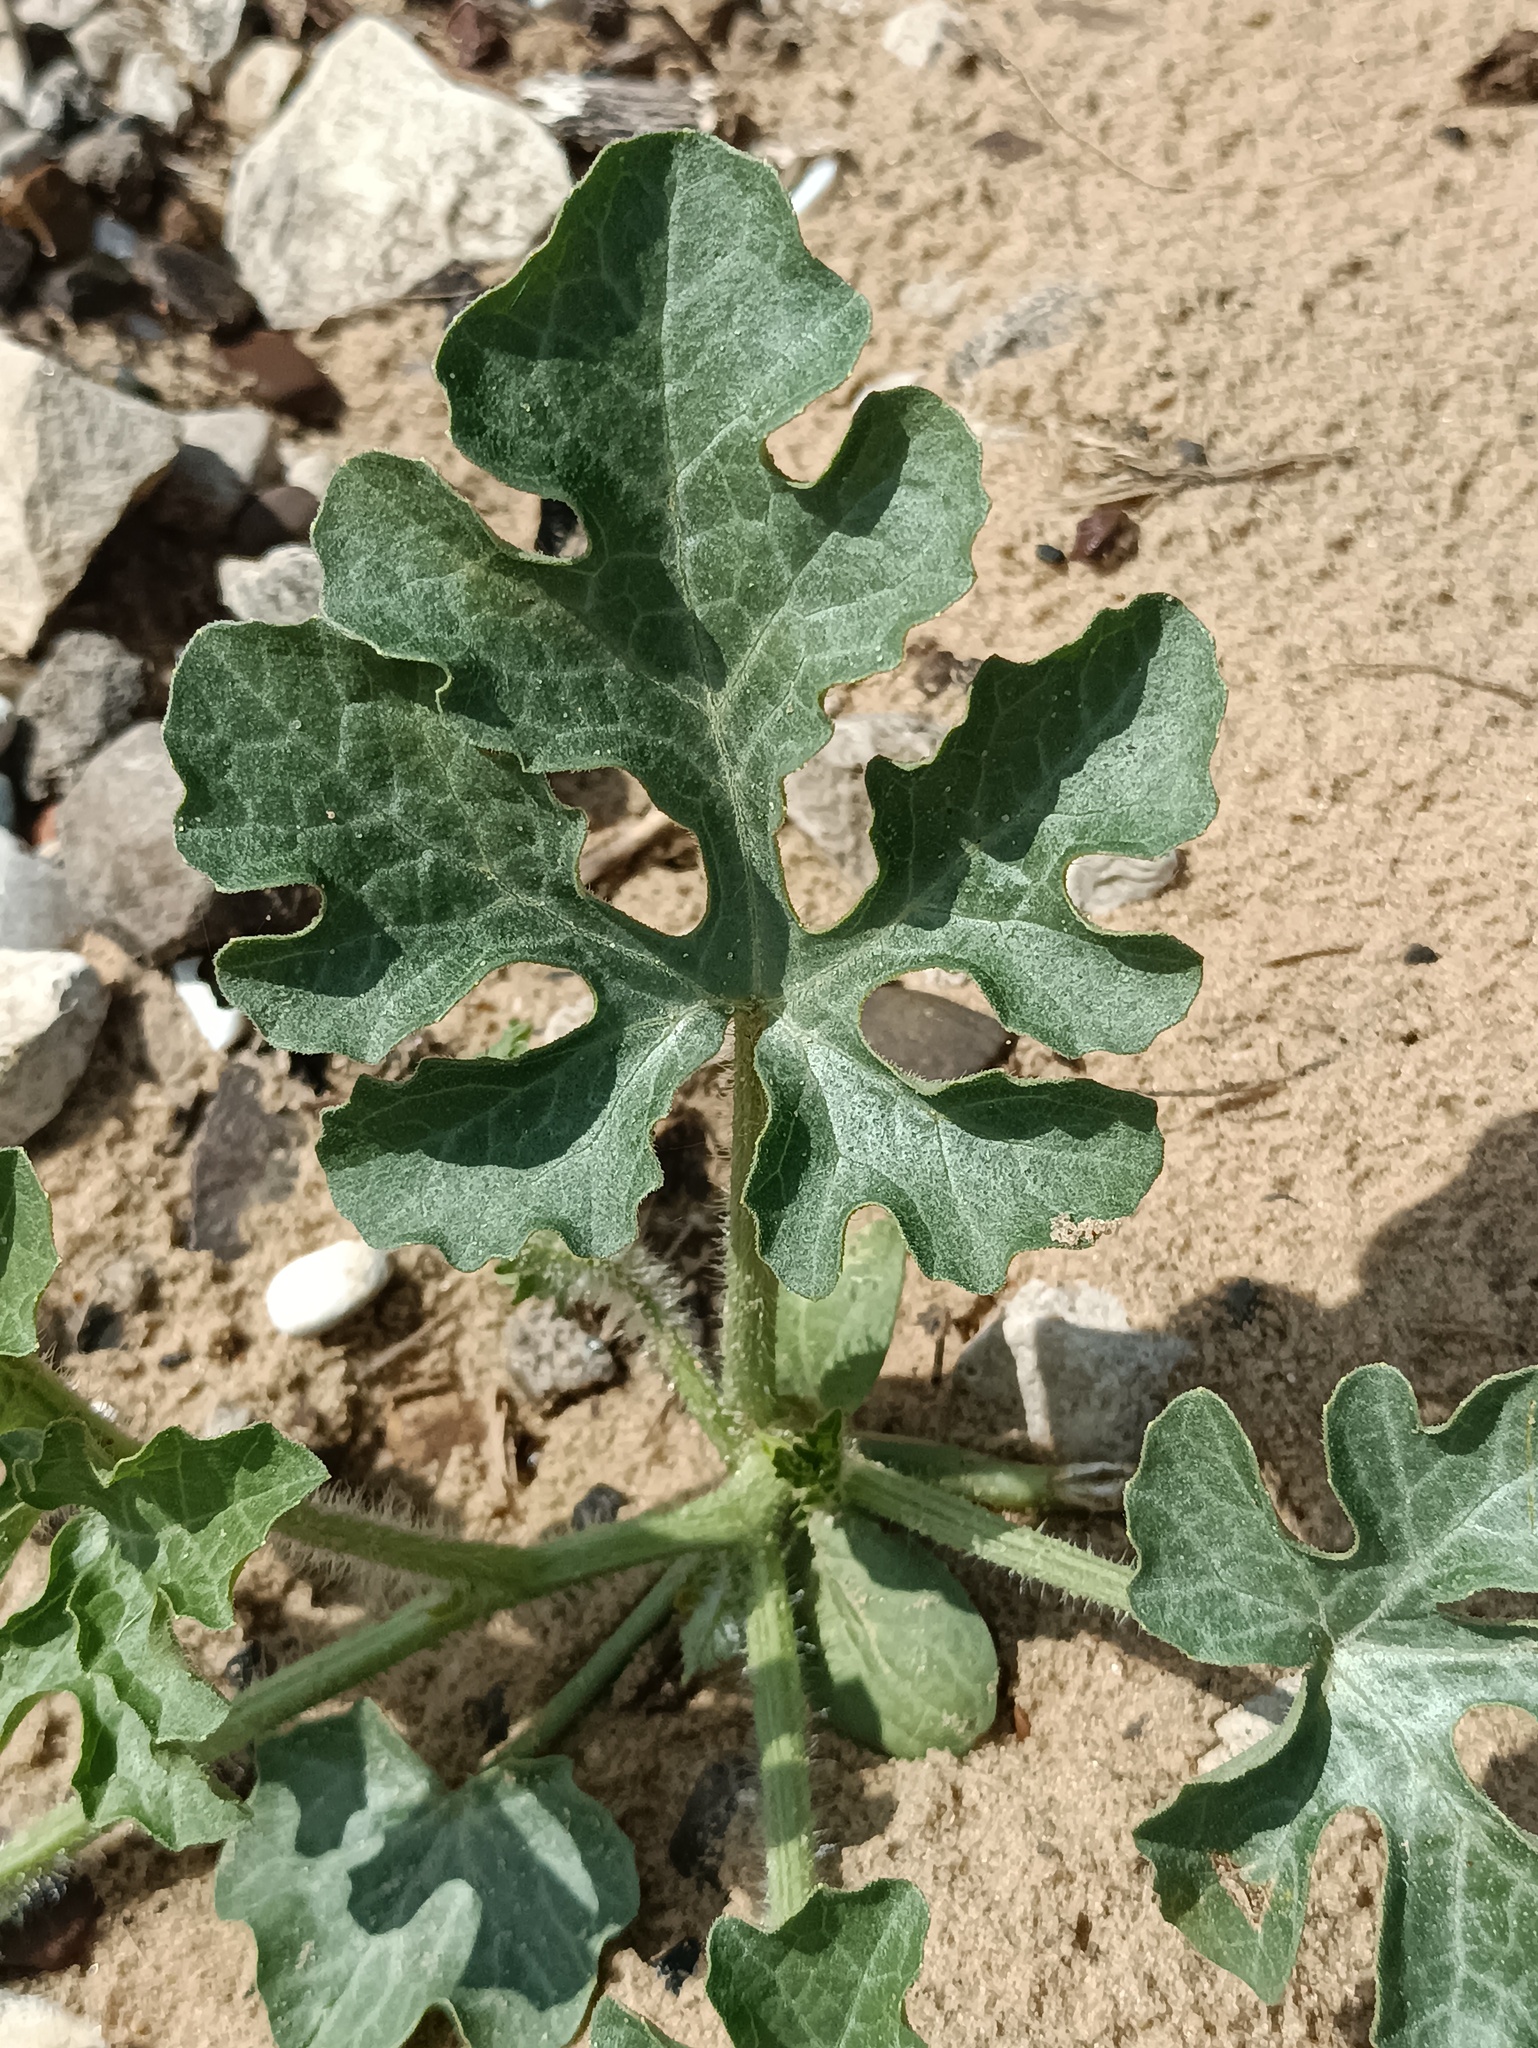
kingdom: Plantae
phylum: Tracheophyta
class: Magnoliopsida
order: Cucurbitales
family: Cucurbitaceae
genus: Citrullus
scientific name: Citrullus lanatus
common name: Watermelon
